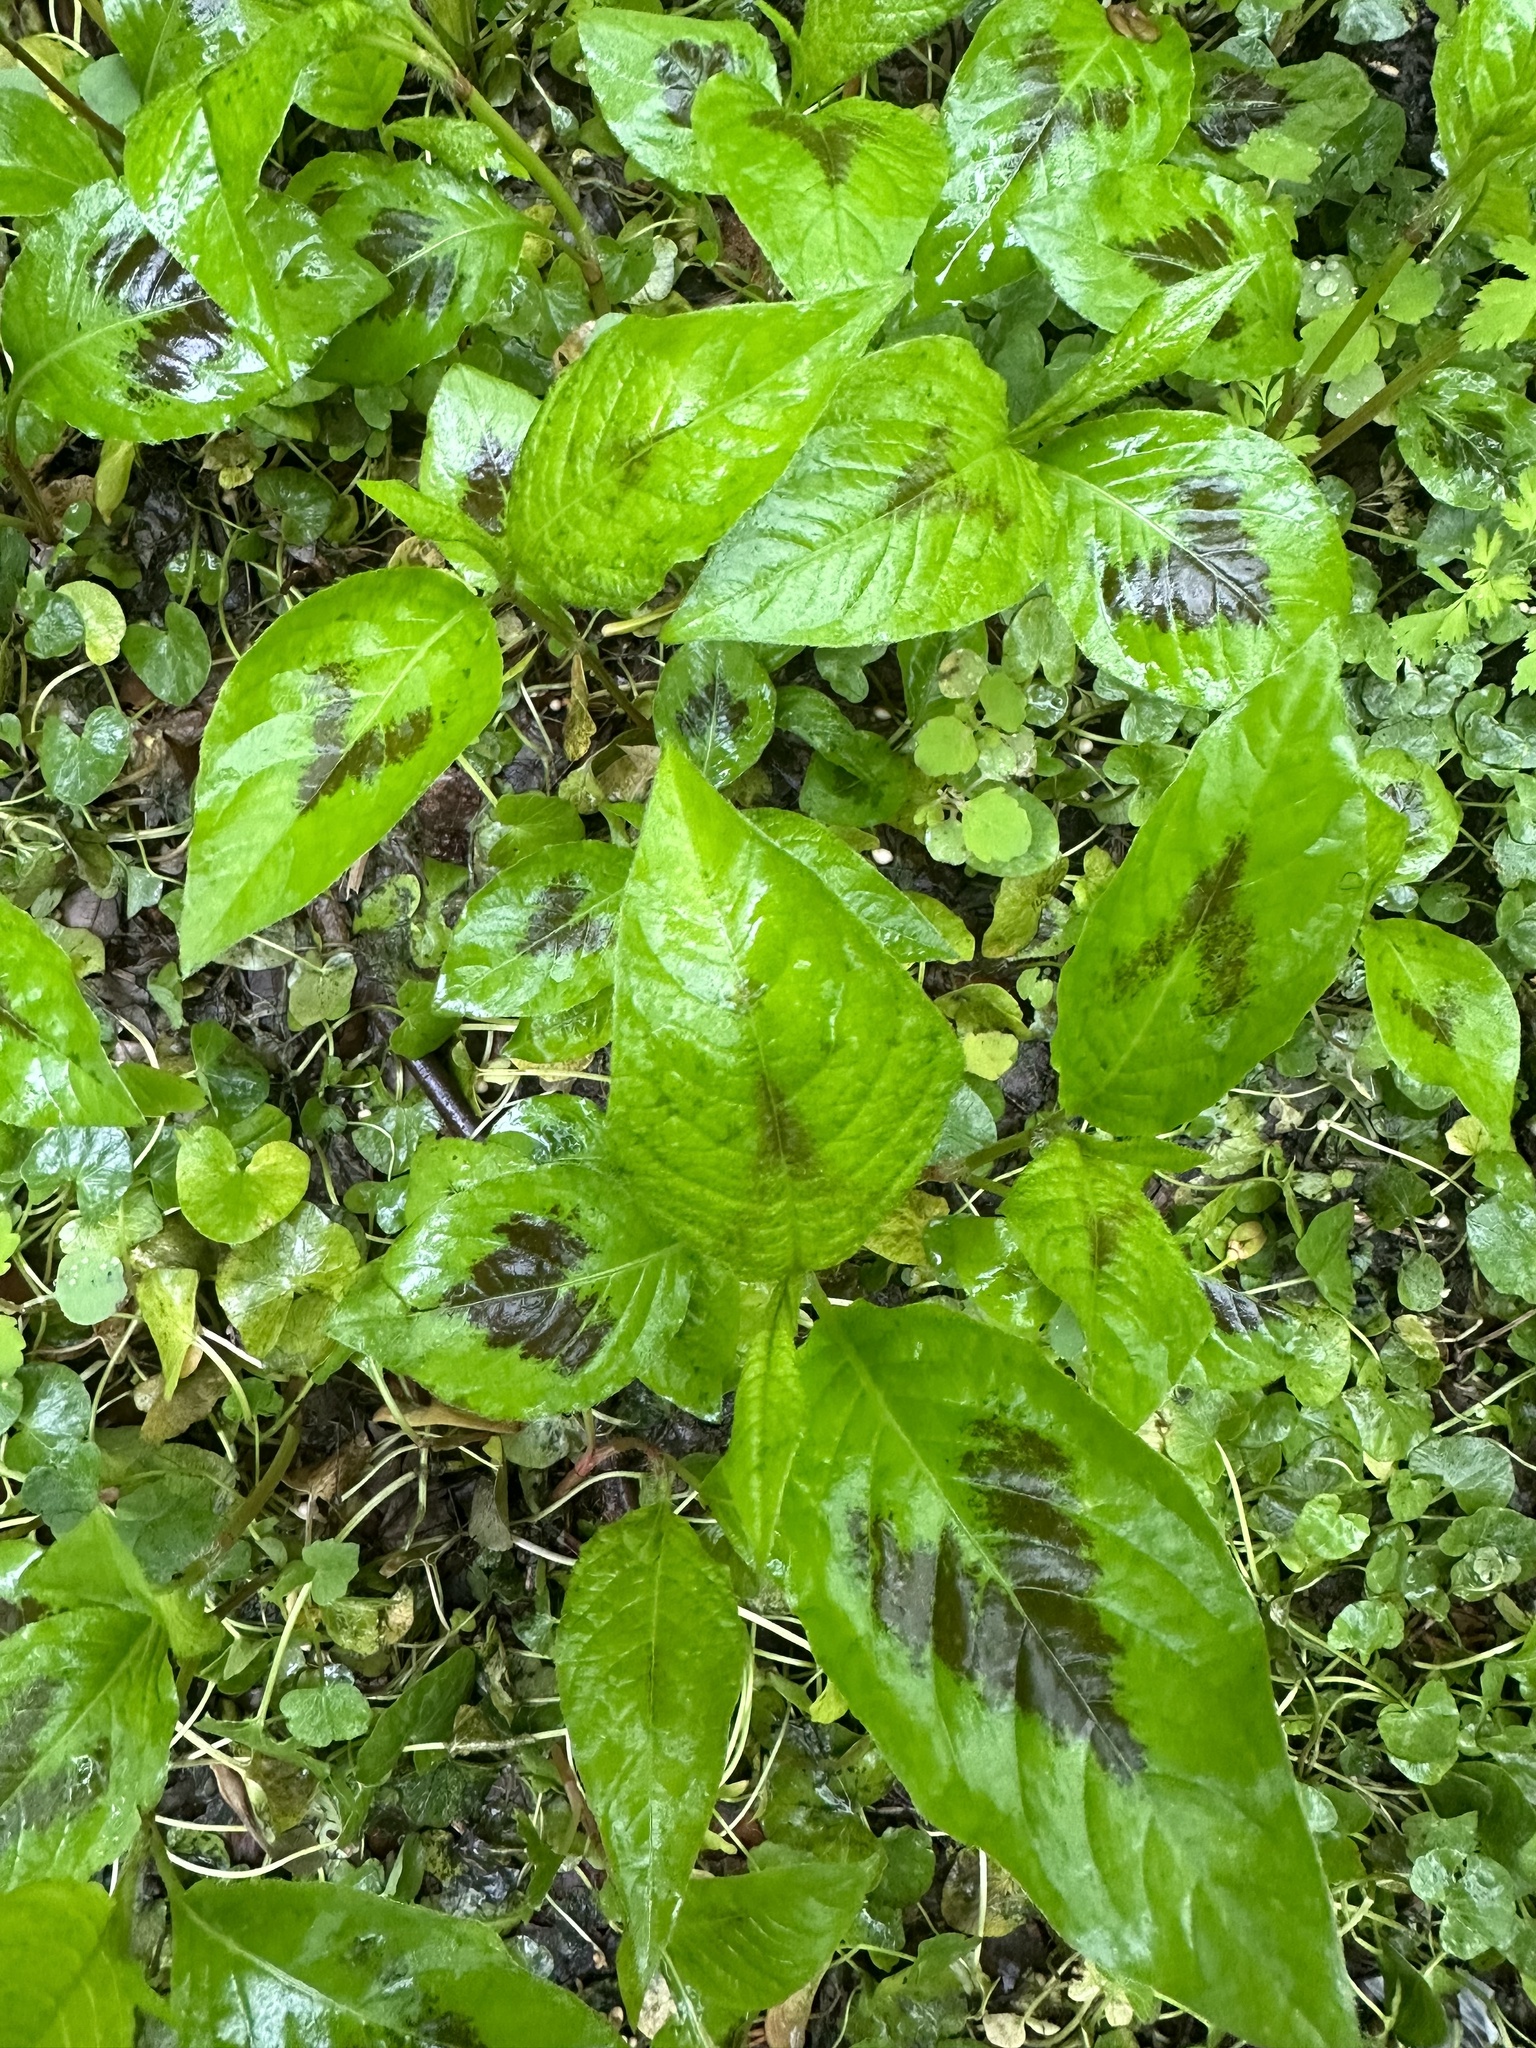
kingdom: Plantae
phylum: Tracheophyta
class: Magnoliopsida
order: Caryophyllales
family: Polygonaceae
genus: Persicaria
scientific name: Persicaria virginiana
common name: Jumpseed
